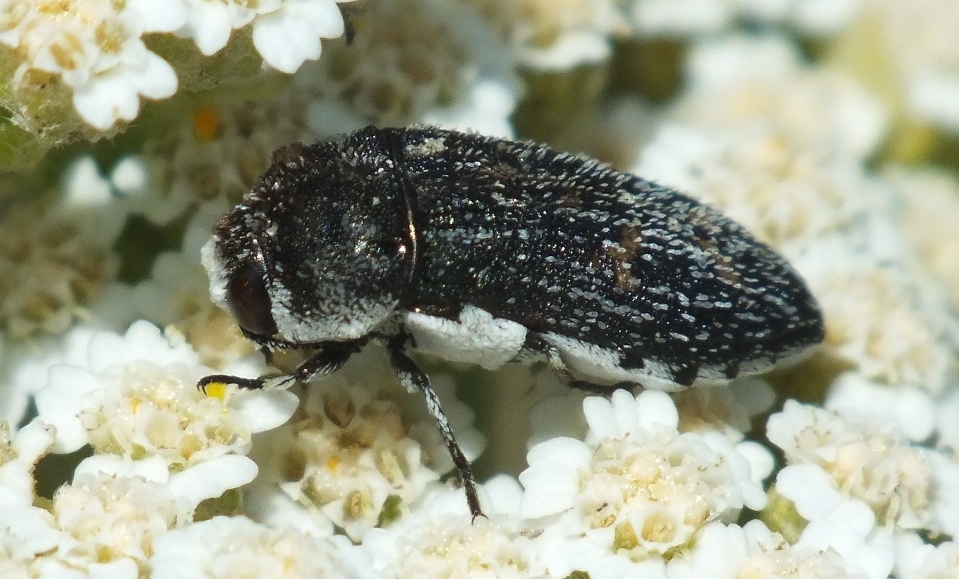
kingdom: Animalia
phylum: Arthropoda
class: Insecta
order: Coleoptera
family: Buprestidae
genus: Acmaeoderella
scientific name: Acmaeoderella mimonti
